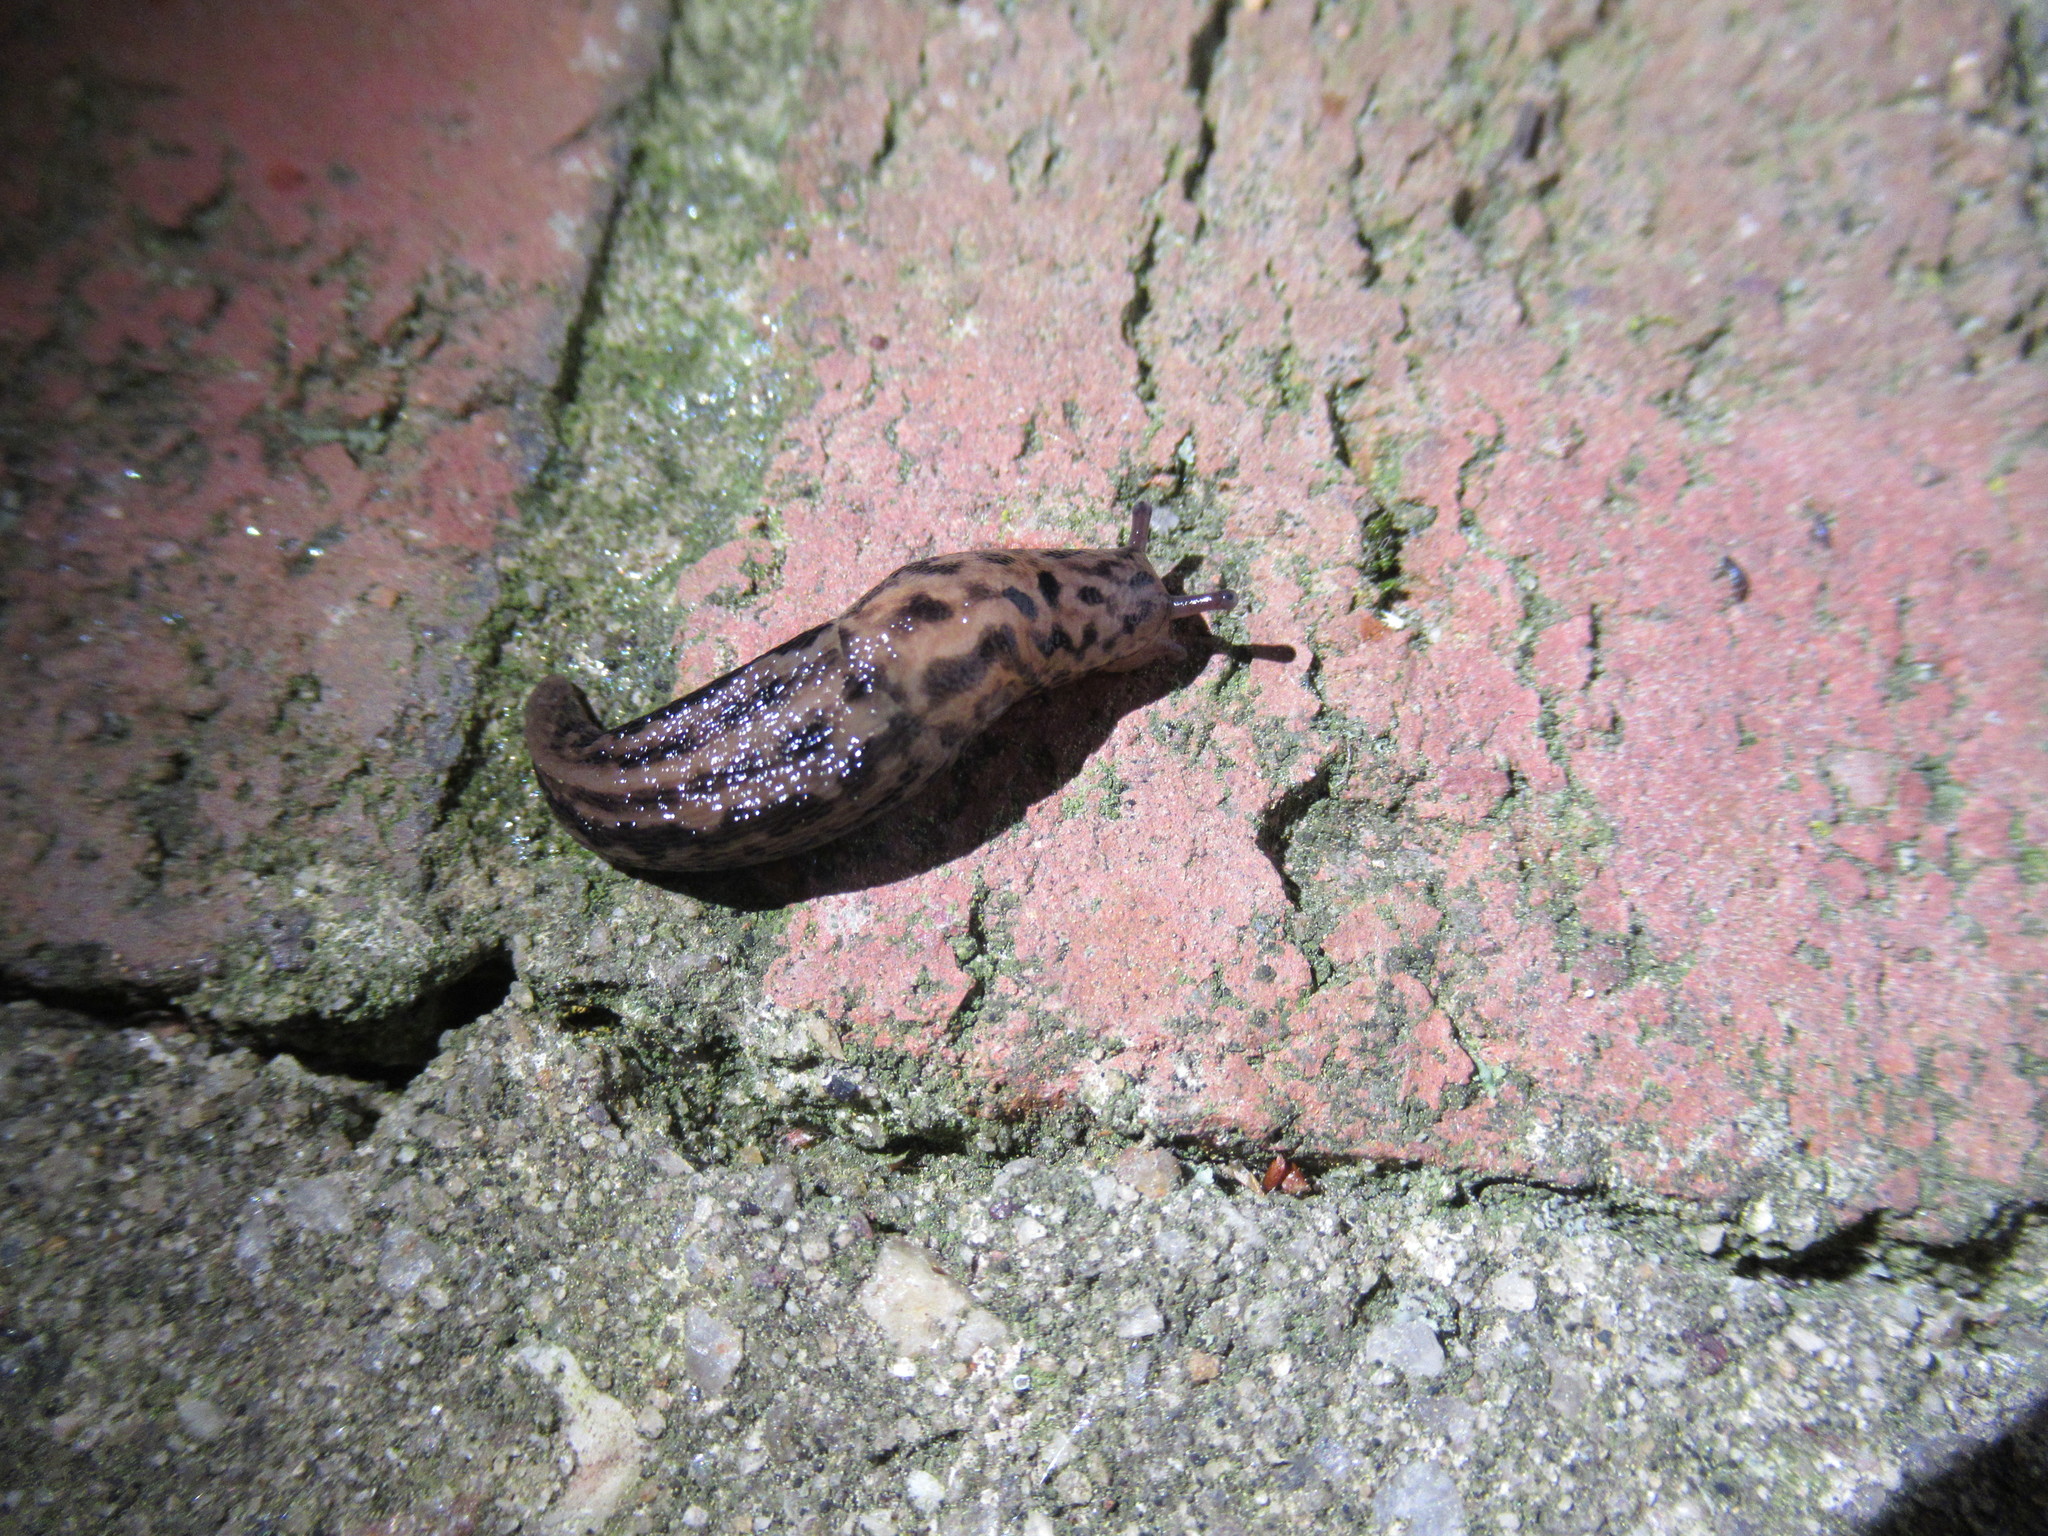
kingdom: Animalia
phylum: Mollusca
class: Gastropoda
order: Stylommatophora
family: Limacidae
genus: Limax
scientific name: Limax maximus
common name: Great grey slug
